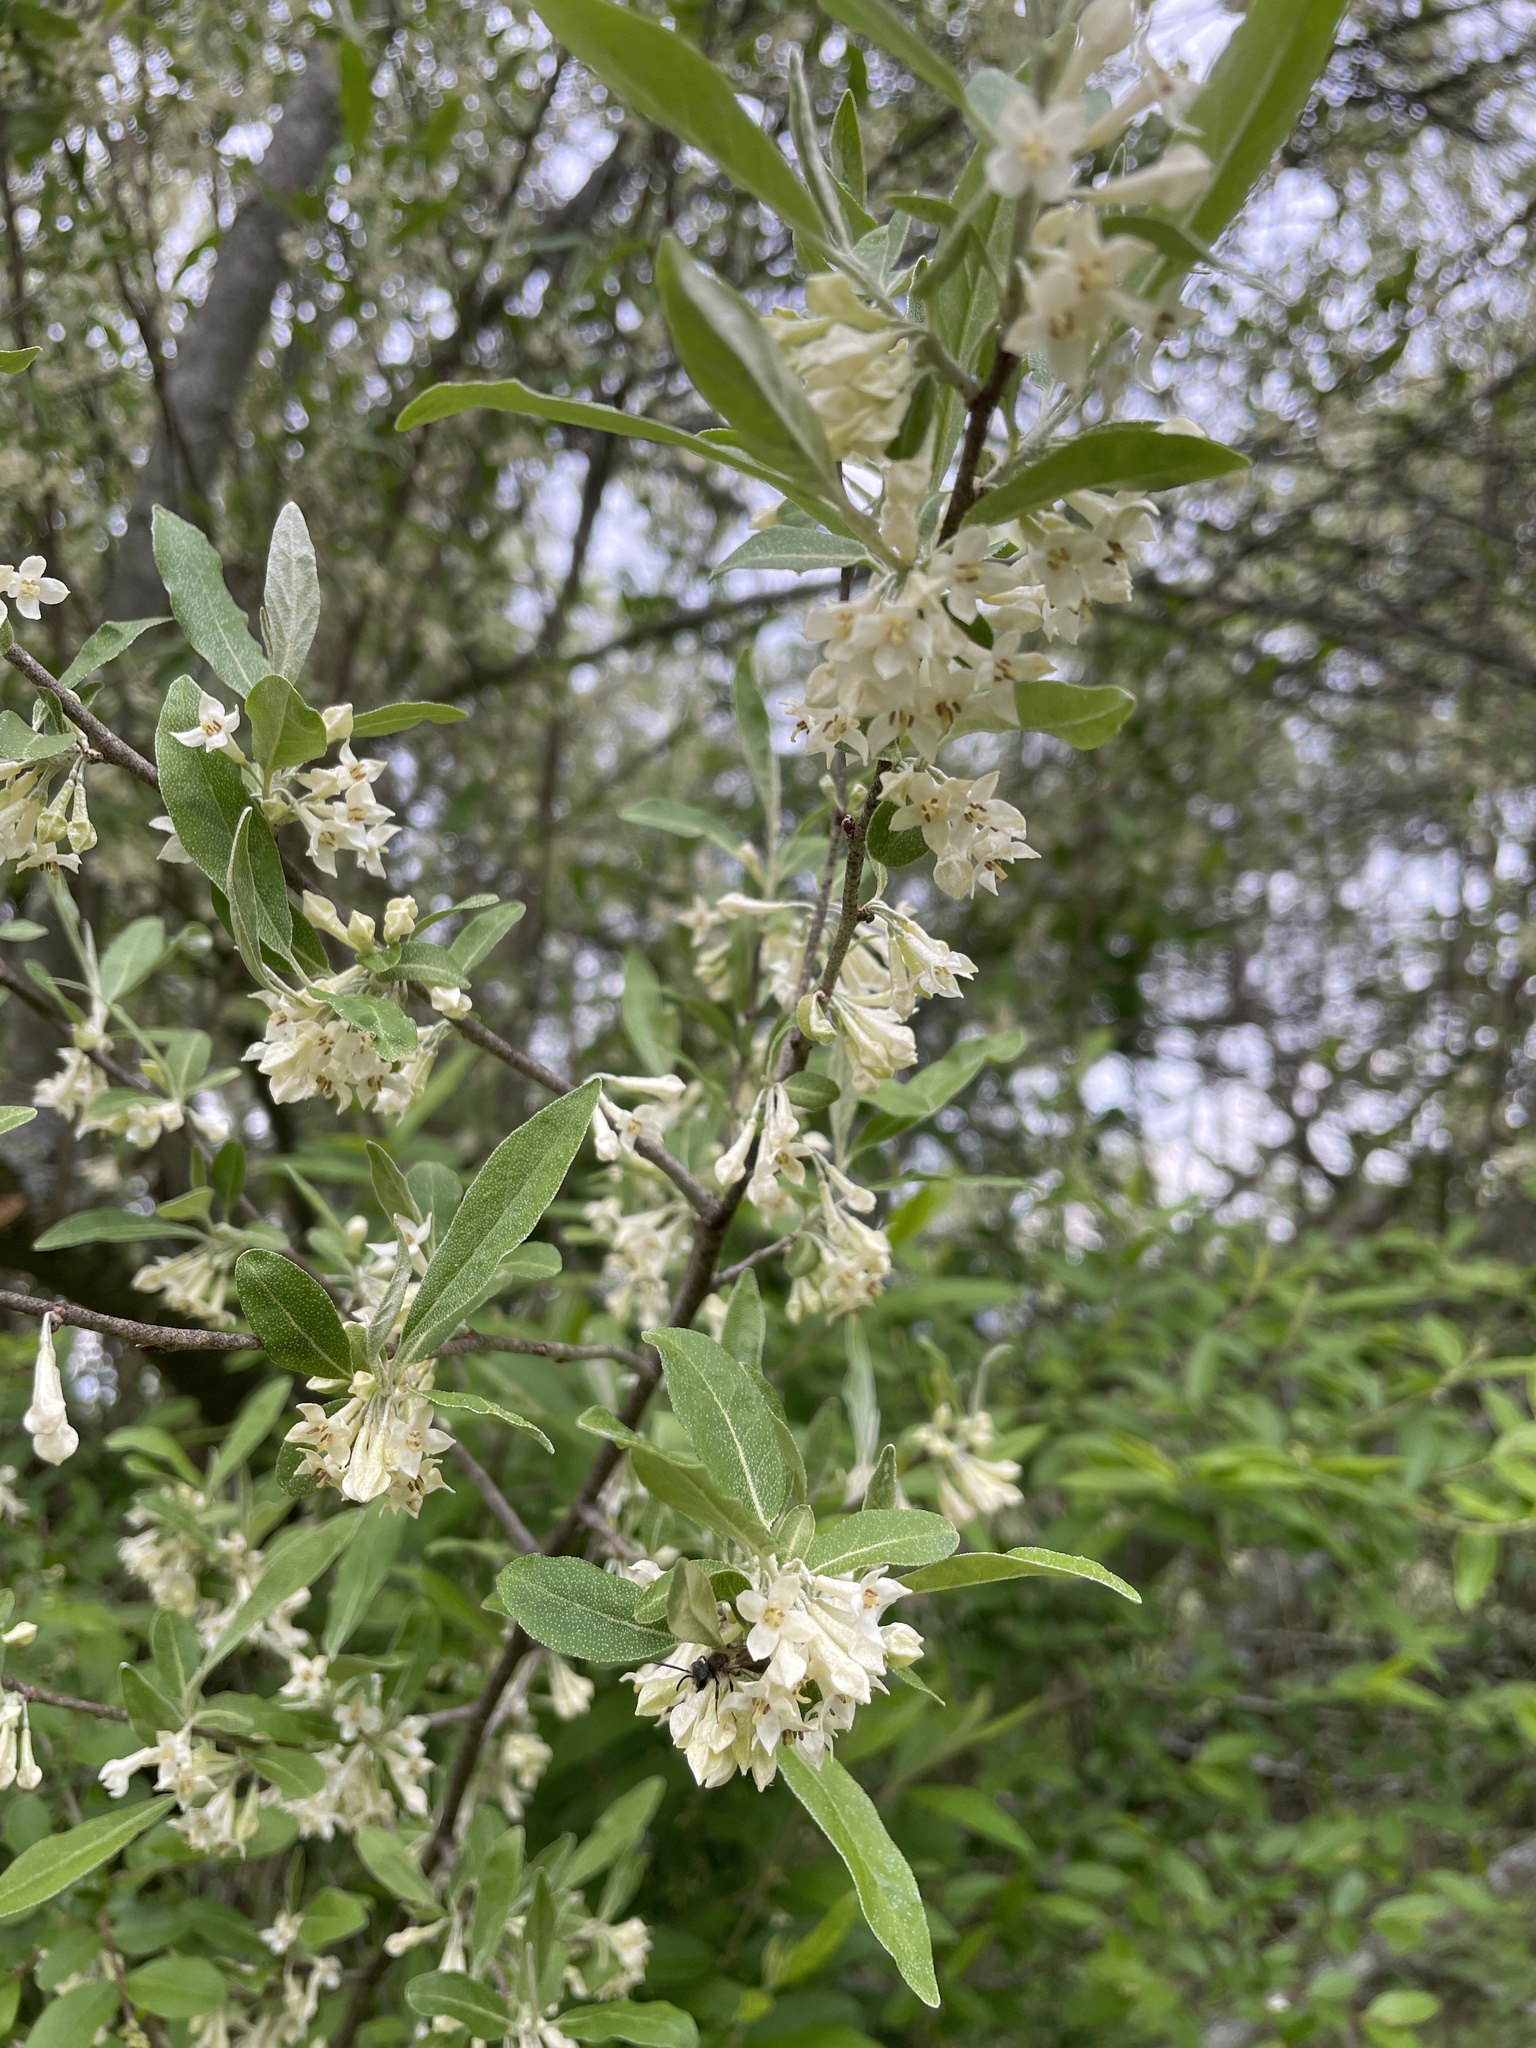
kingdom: Plantae
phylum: Tracheophyta
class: Magnoliopsida
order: Rosales
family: Elaeagnaceae
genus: Elaeagnus
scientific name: Elaeagnus umbellata
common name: Autumn olive
